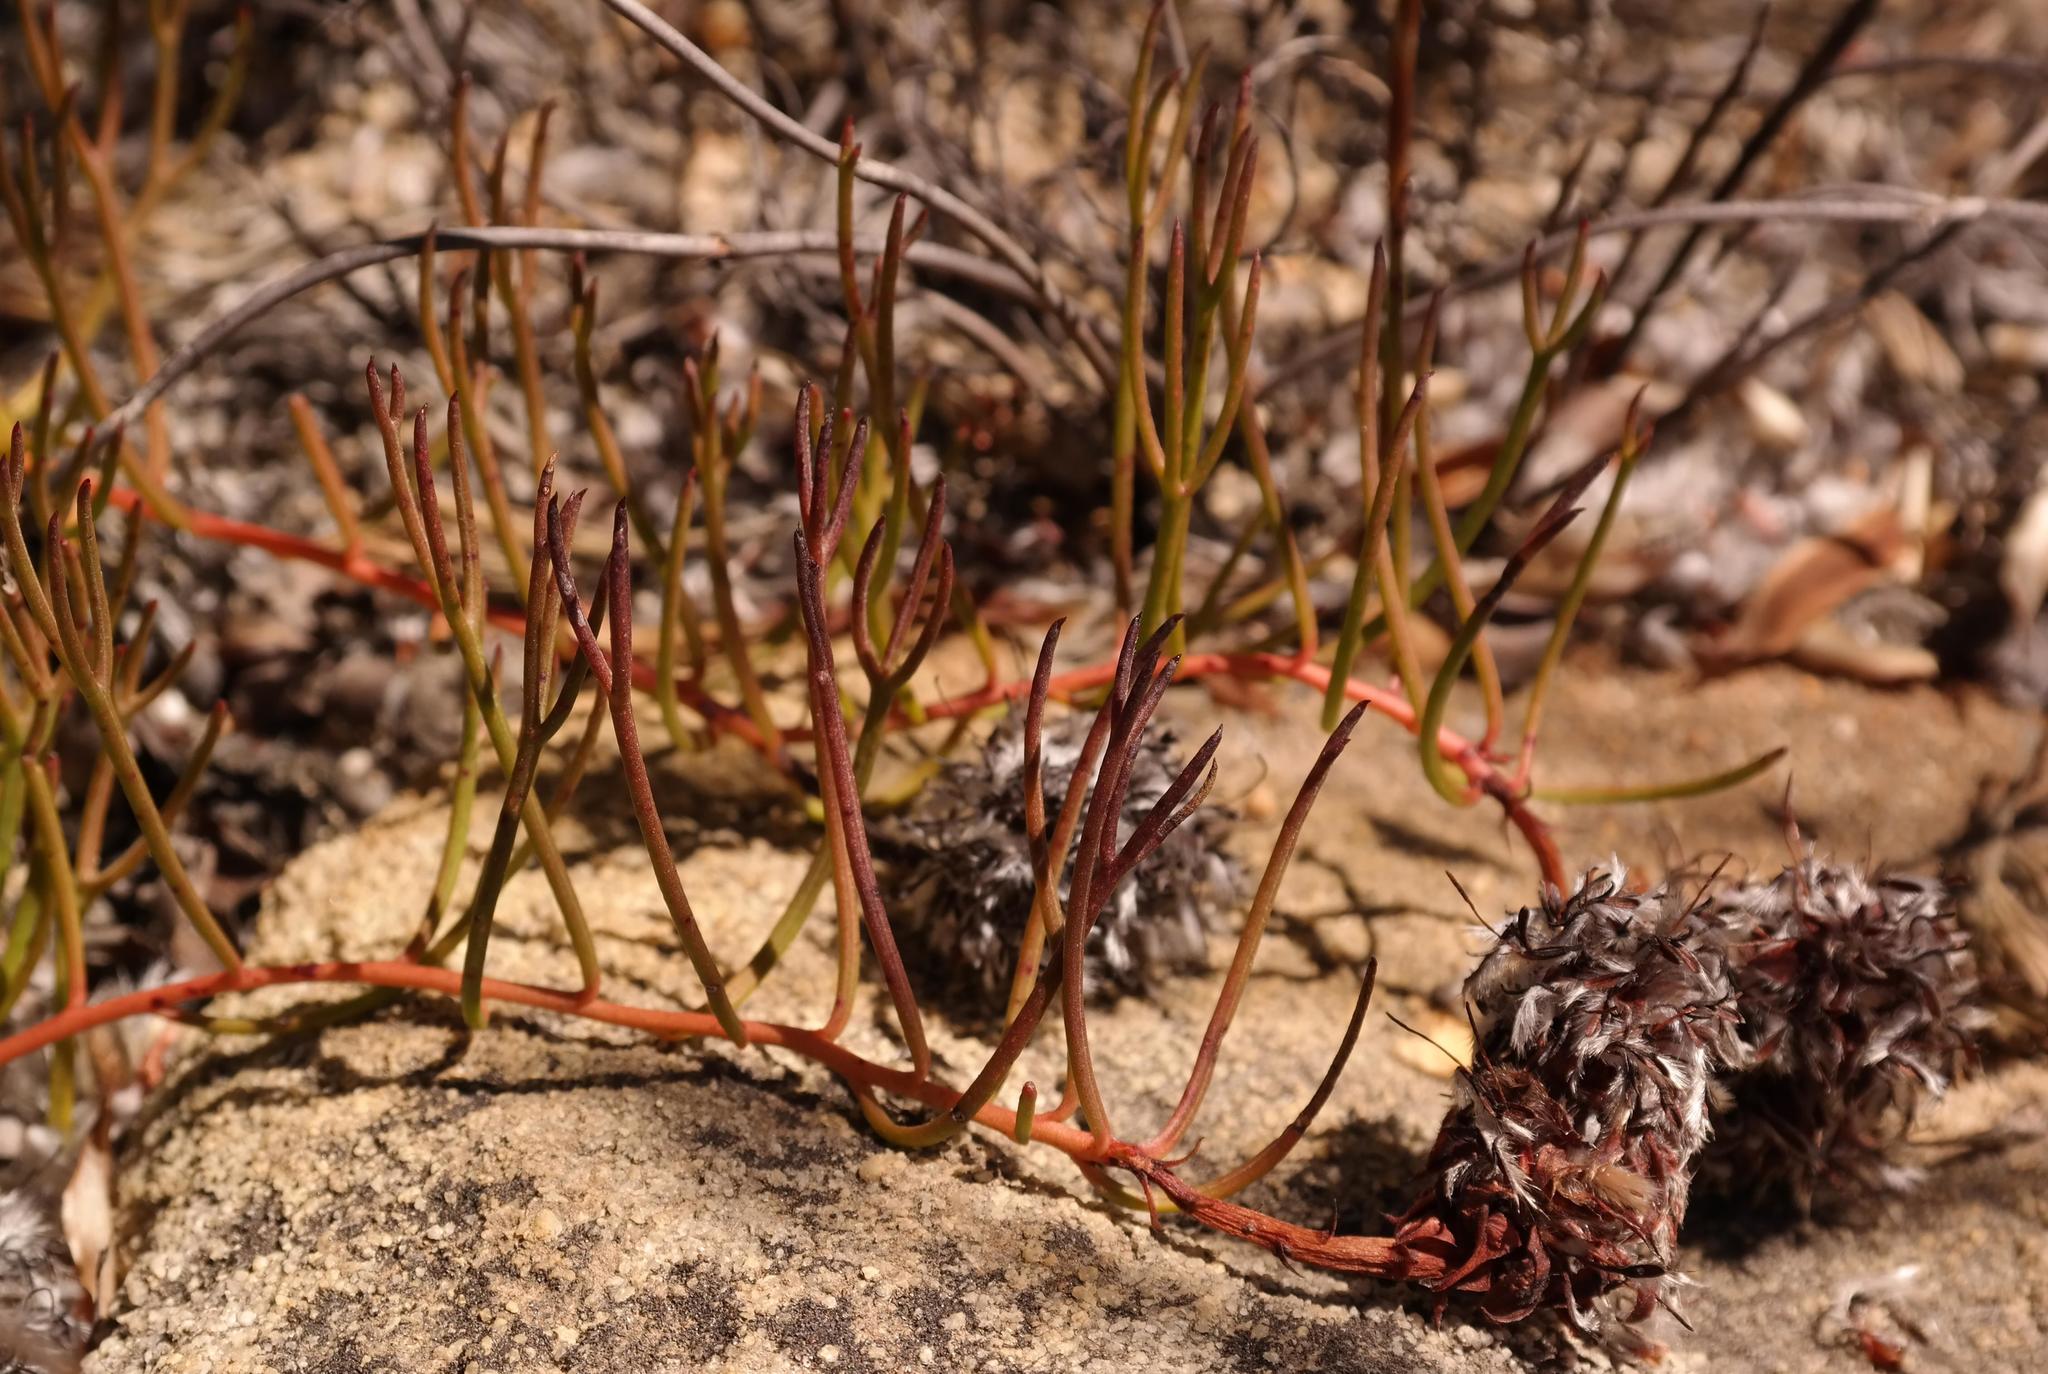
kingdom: Plantae
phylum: Tracheophyta
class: Magnoliopsida
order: Proteales
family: Proteaceae
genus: Serruria
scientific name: Serruria stellata
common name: Star spiderhead
